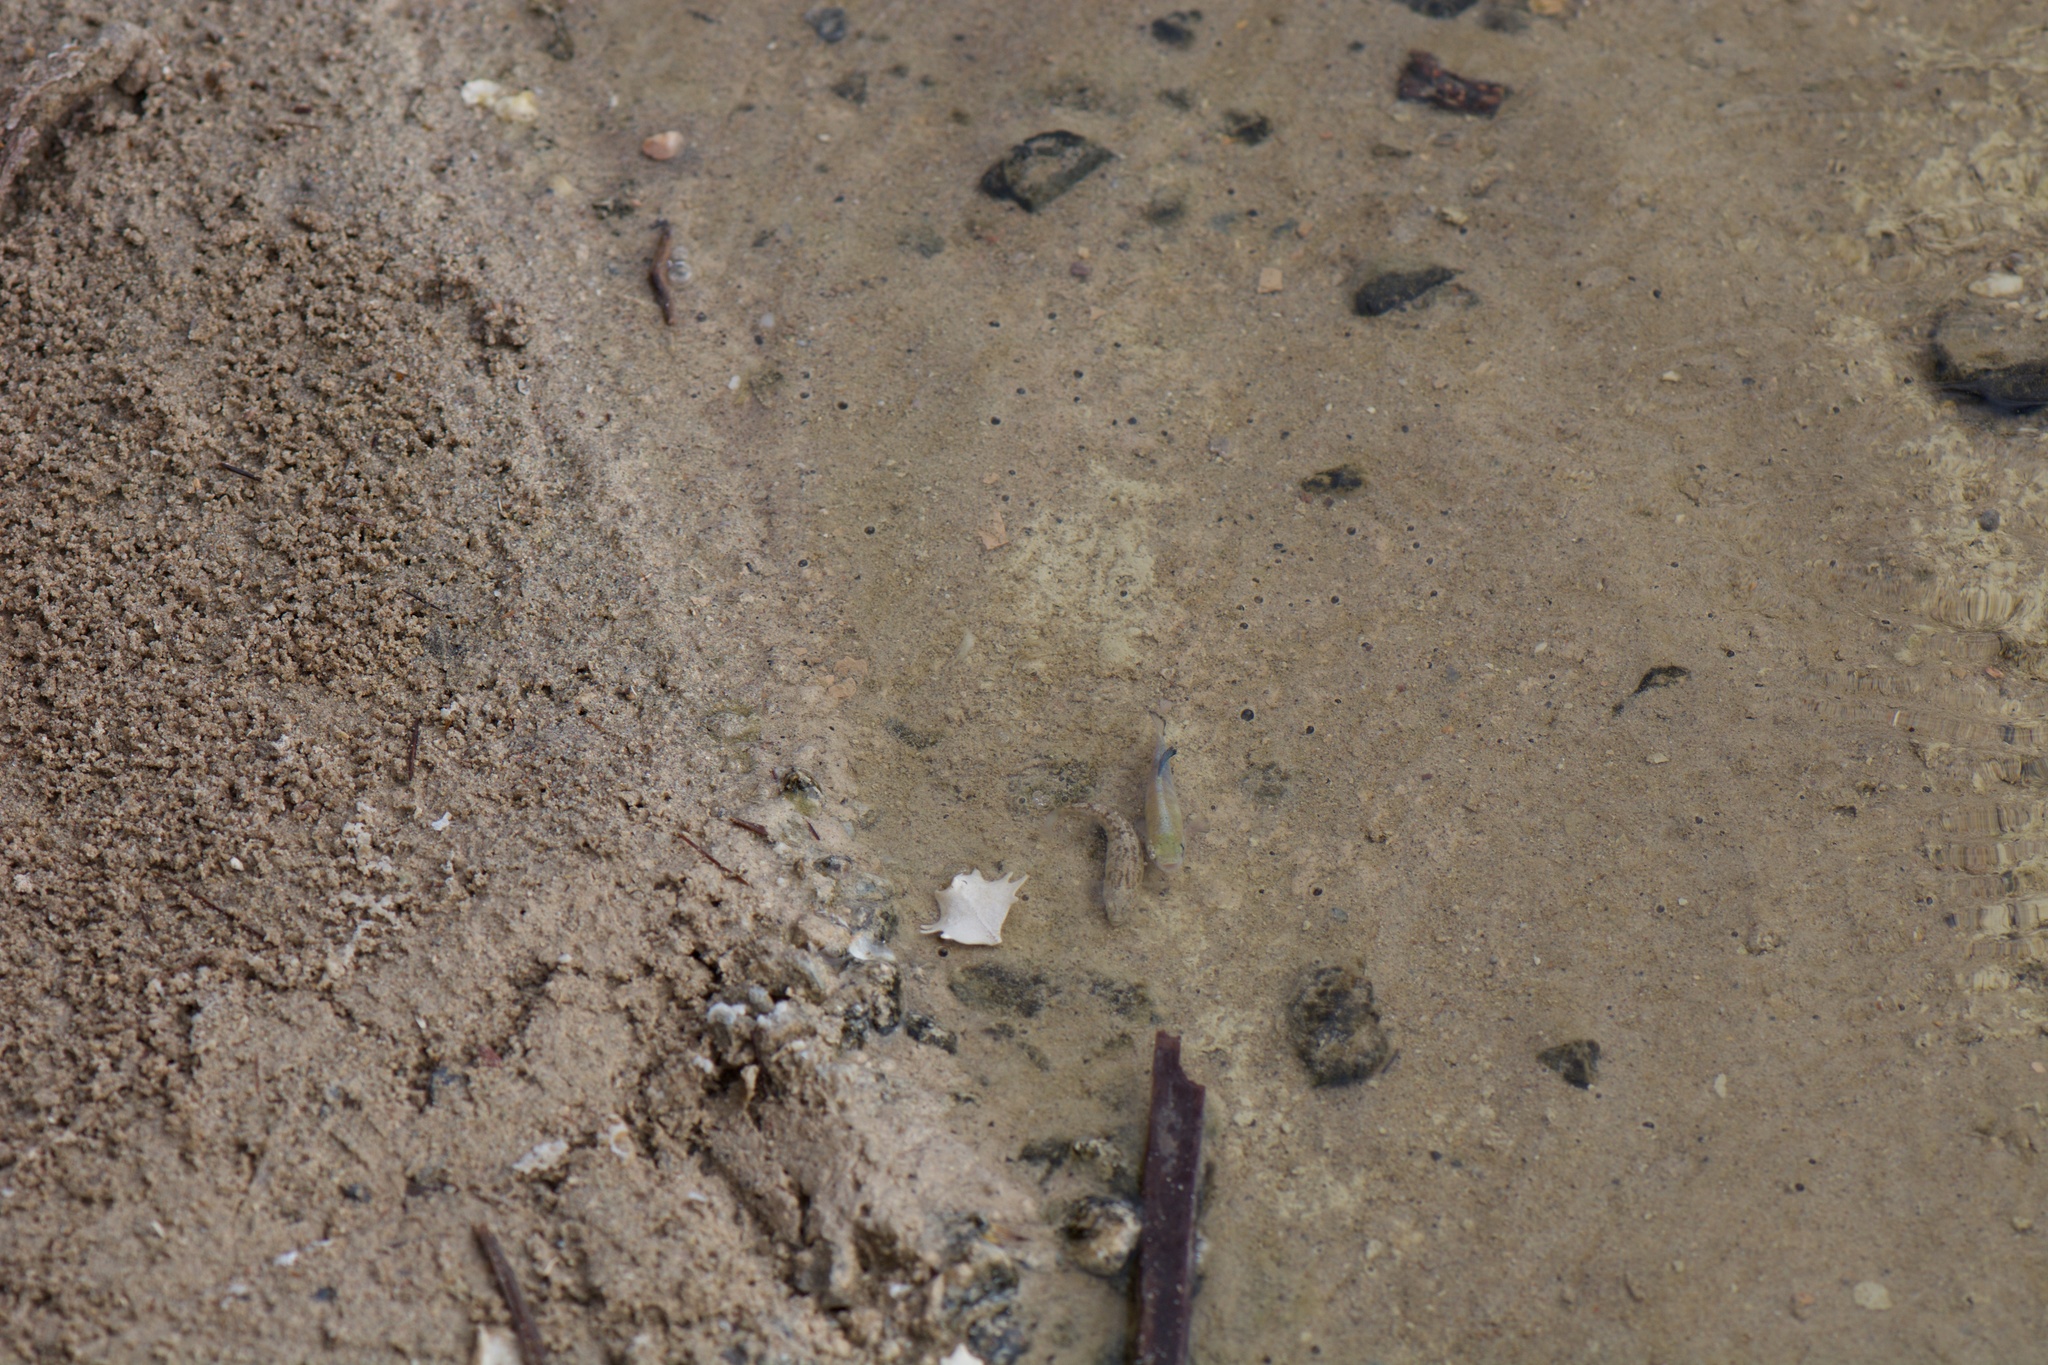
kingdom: Animalia
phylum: Chordata
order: Cyprinodontiformes
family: Cyprinodontidae
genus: Cyprinodon
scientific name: Cyprinodon salinus
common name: Cottonball marsh pupfish
